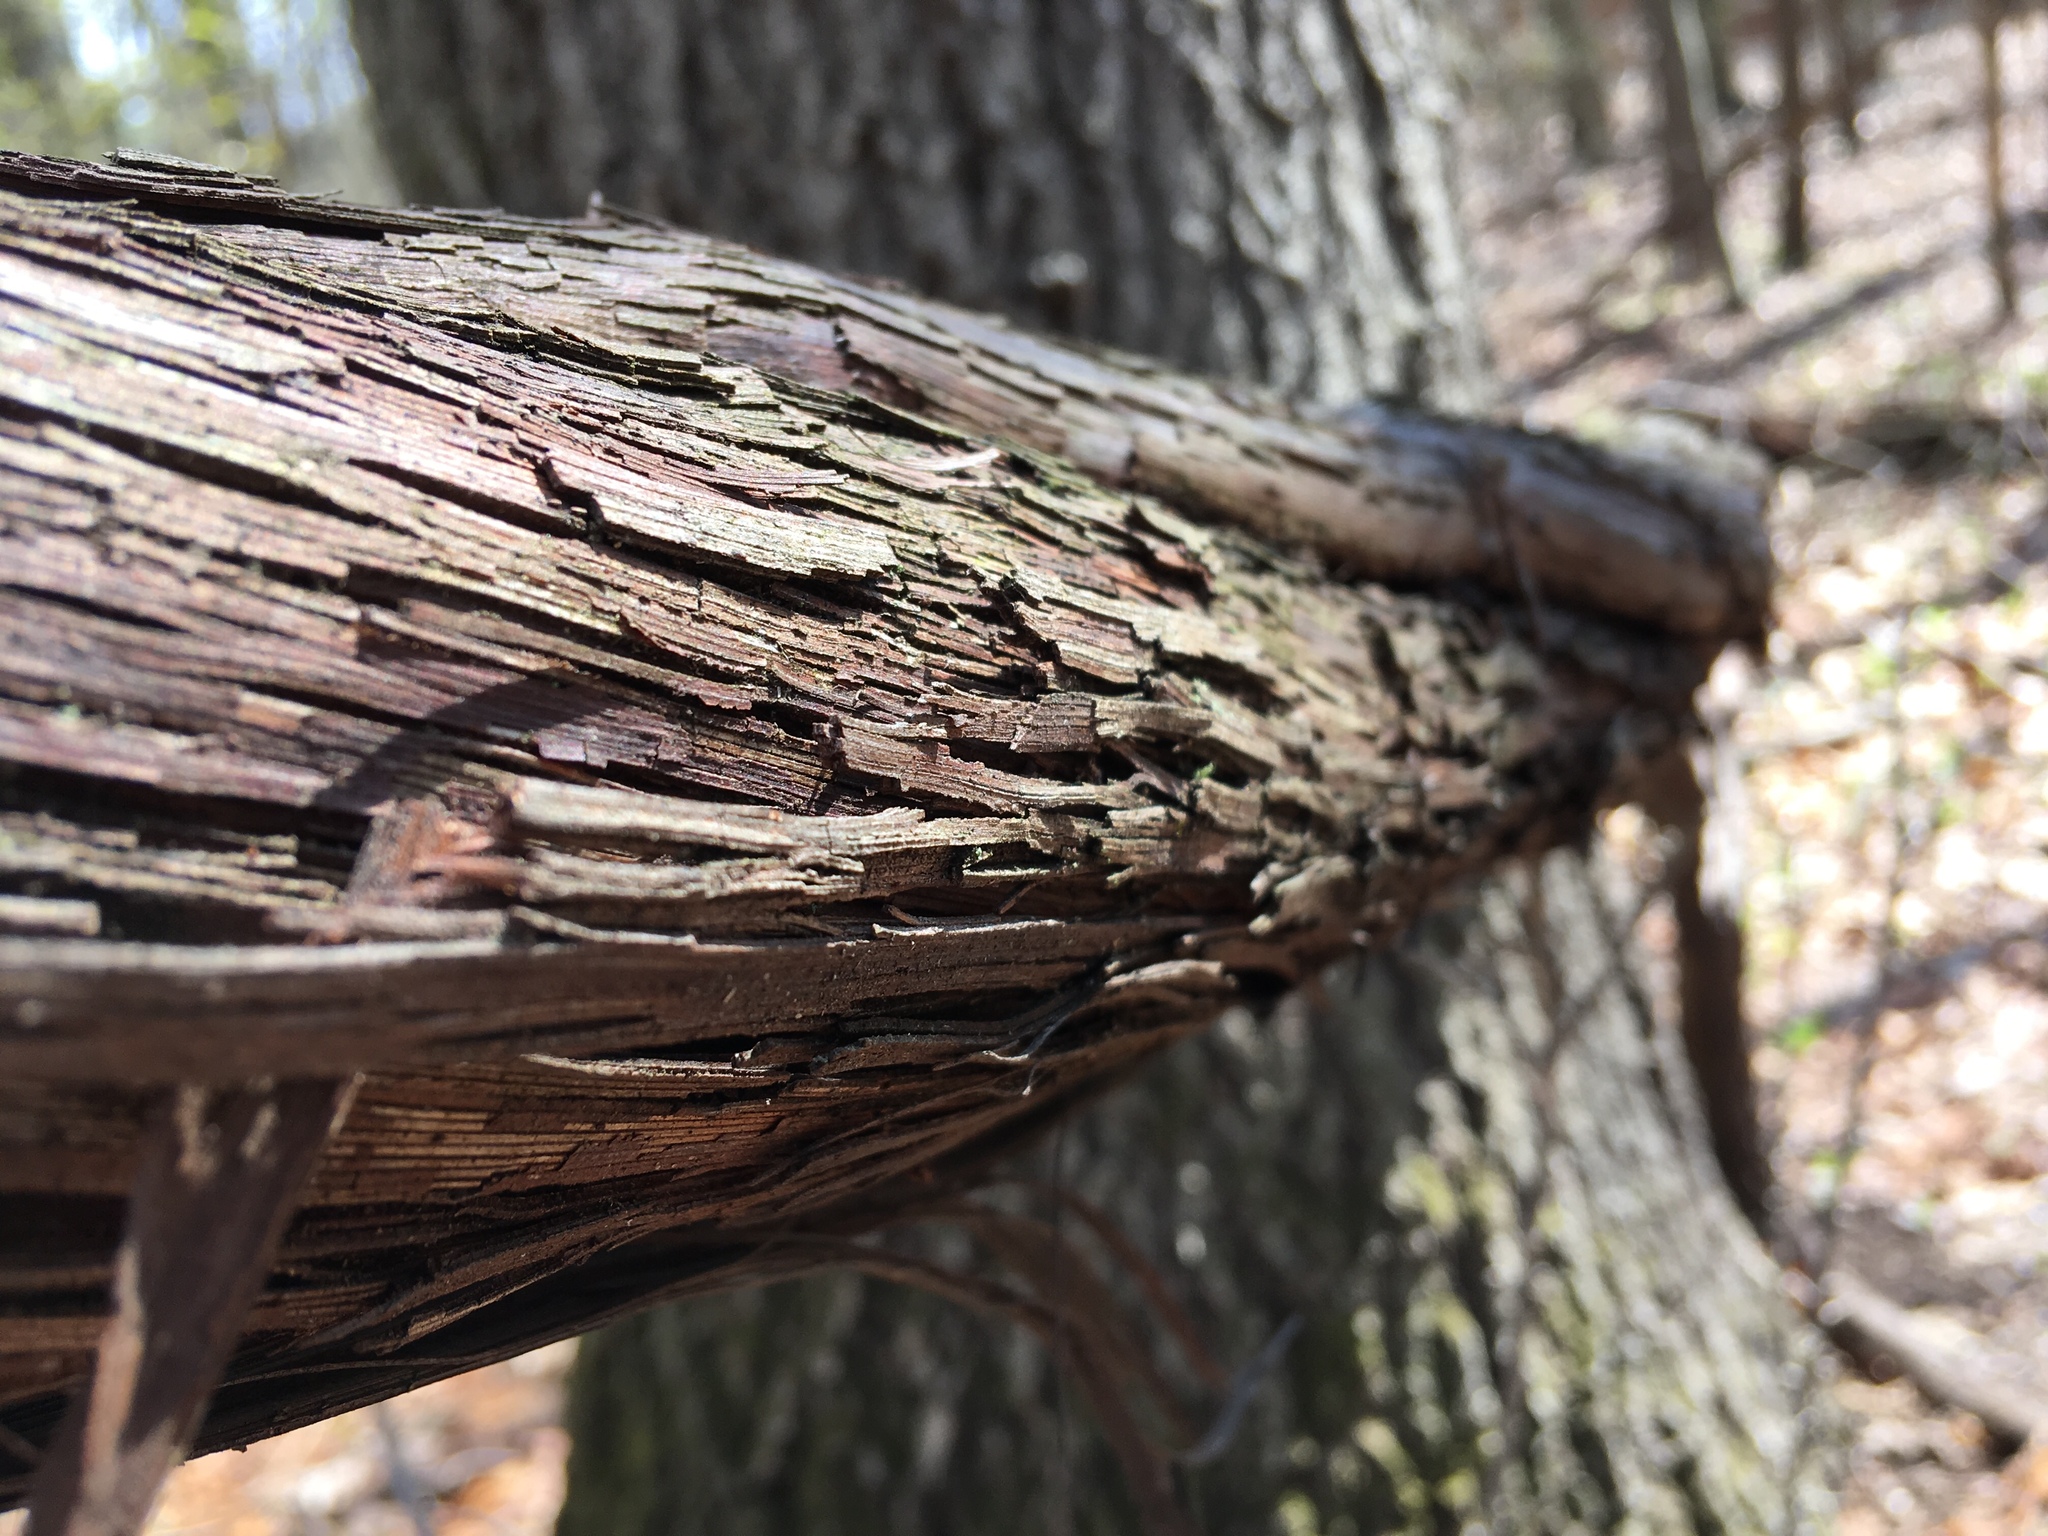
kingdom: Plantae
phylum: Tracheophyta
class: Magnoliopsida
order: Vitales
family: Vitaceae
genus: Vitis
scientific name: Vitis
